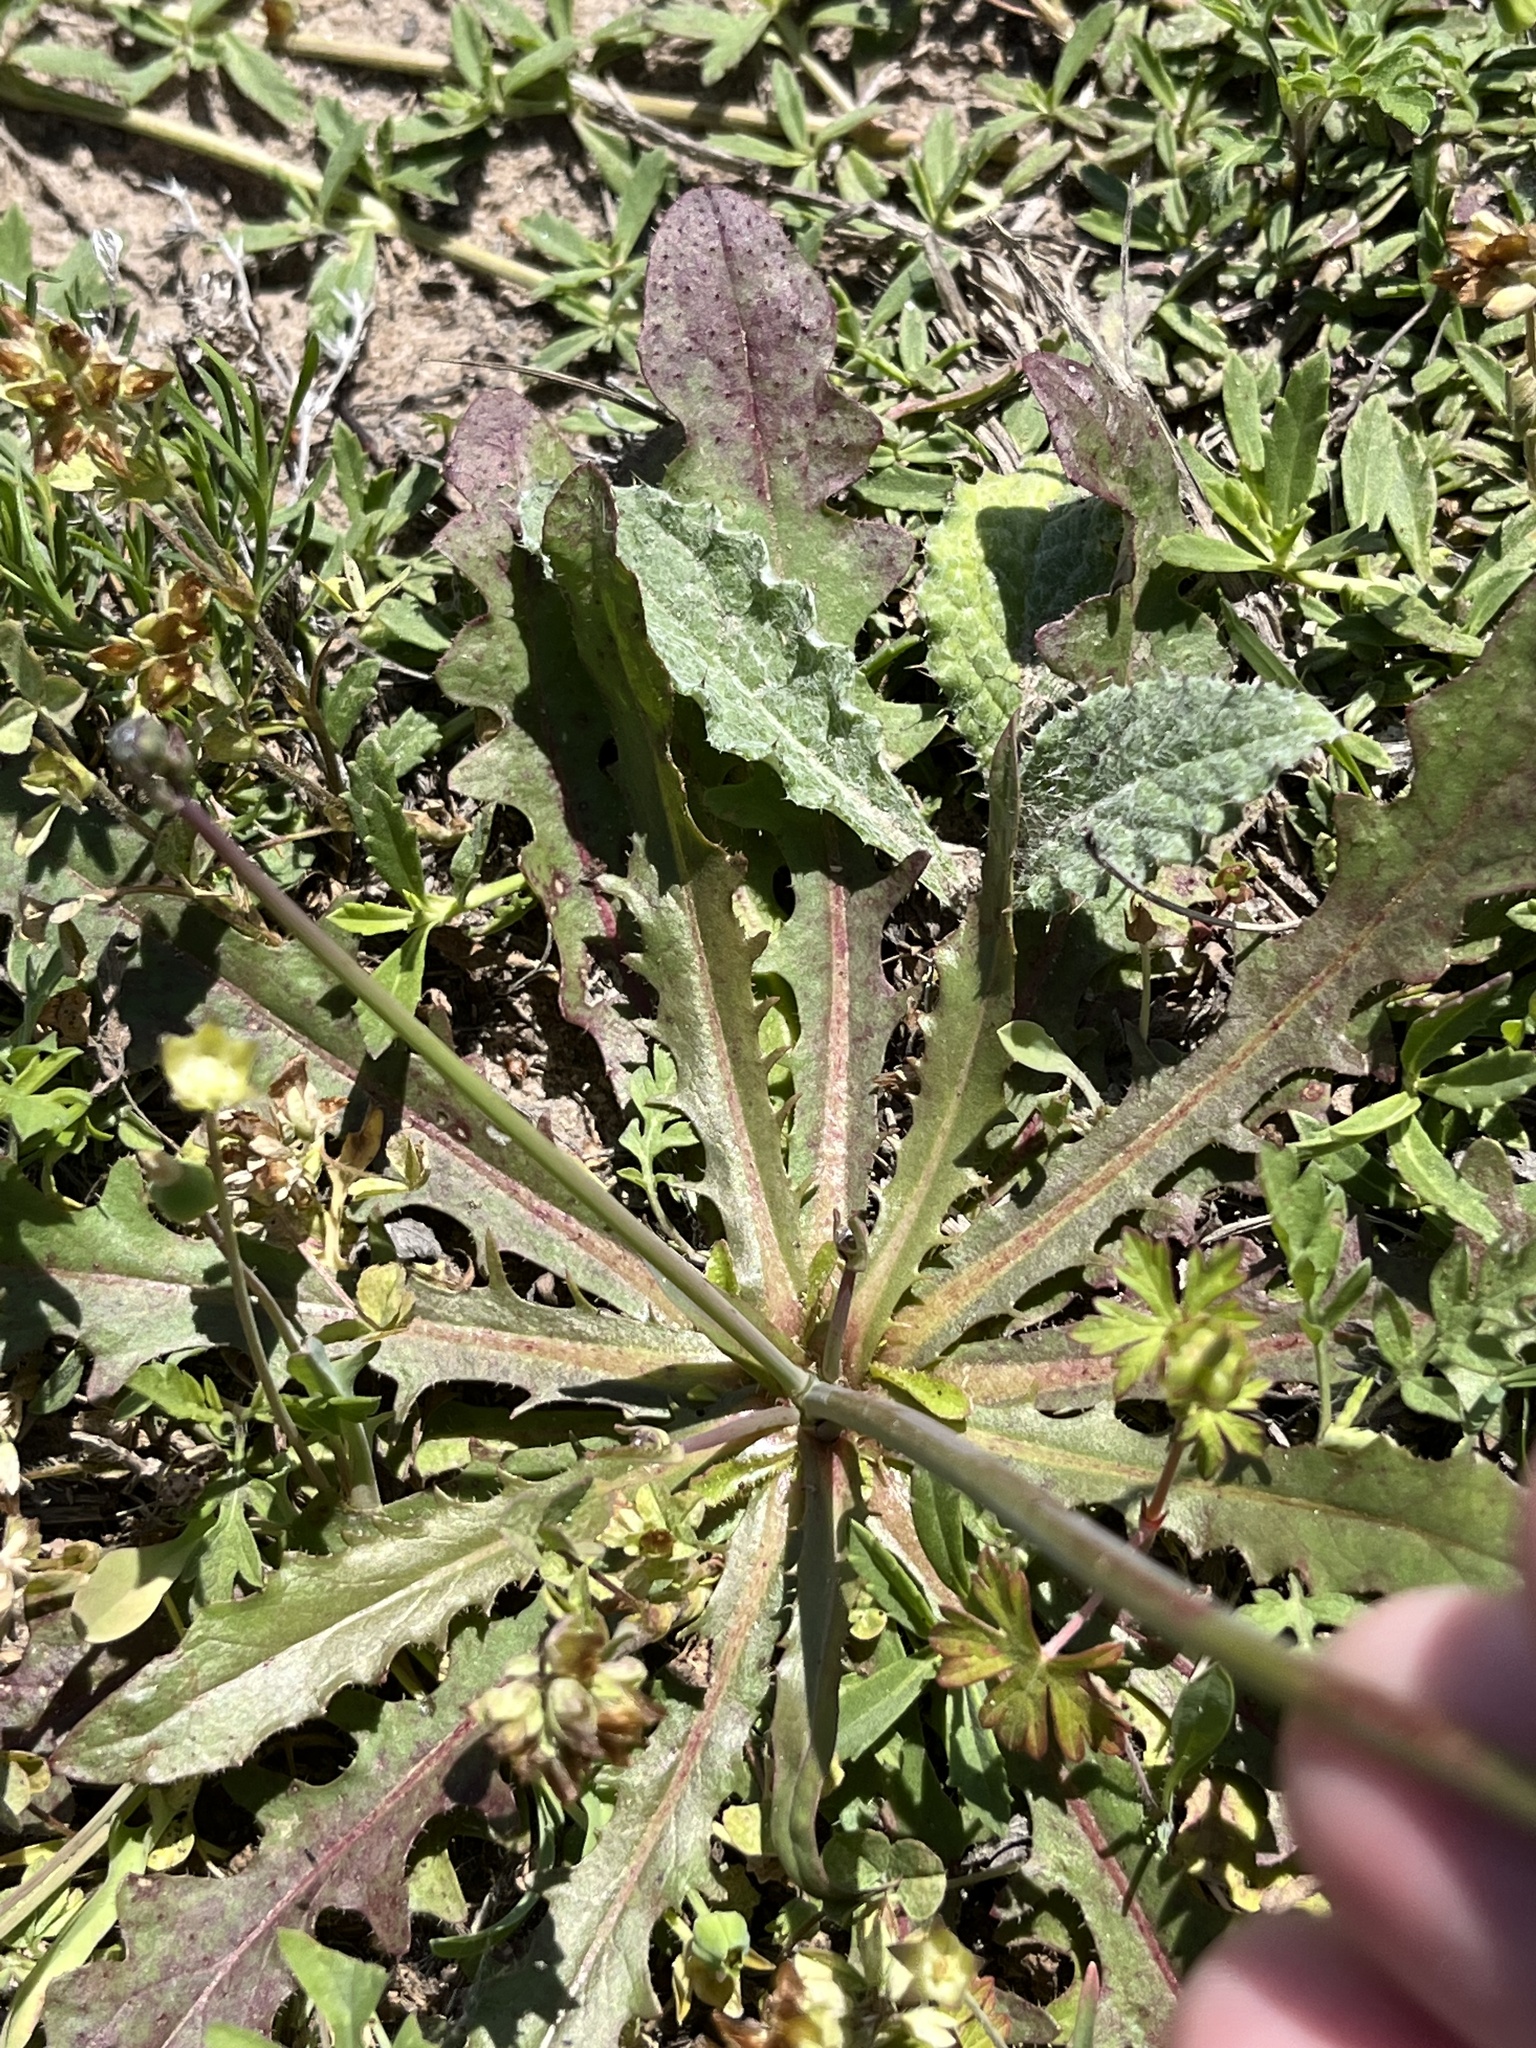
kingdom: Plantae
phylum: Tracheophyta
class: Magnoliopsida
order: Asterales
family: Asteraceae
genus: Hypochaeris
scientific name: Hypochaeris glabra
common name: Smooth catsear
